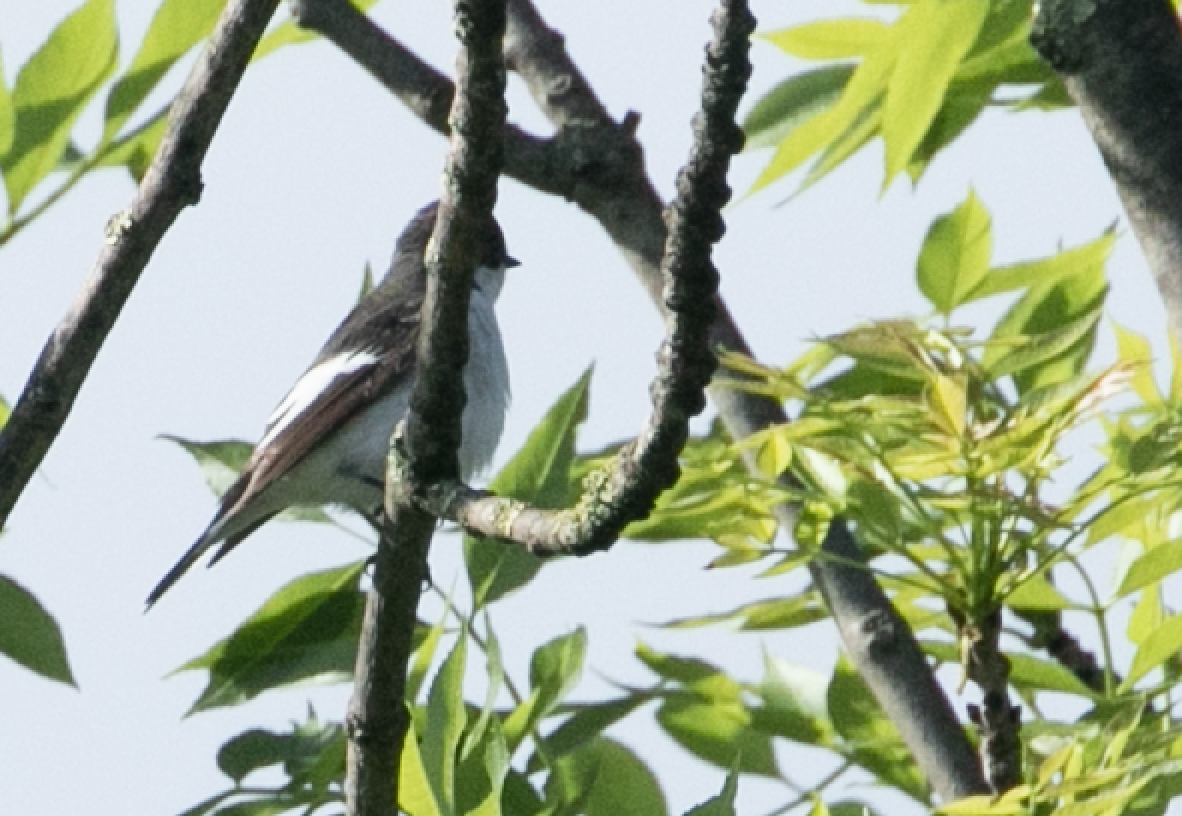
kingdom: Animalia
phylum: Chordata
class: Aves
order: Passeriformes
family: Muscicapidae
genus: Ficedula
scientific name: Ficedula hypoleuca
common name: European pied flycatcher
